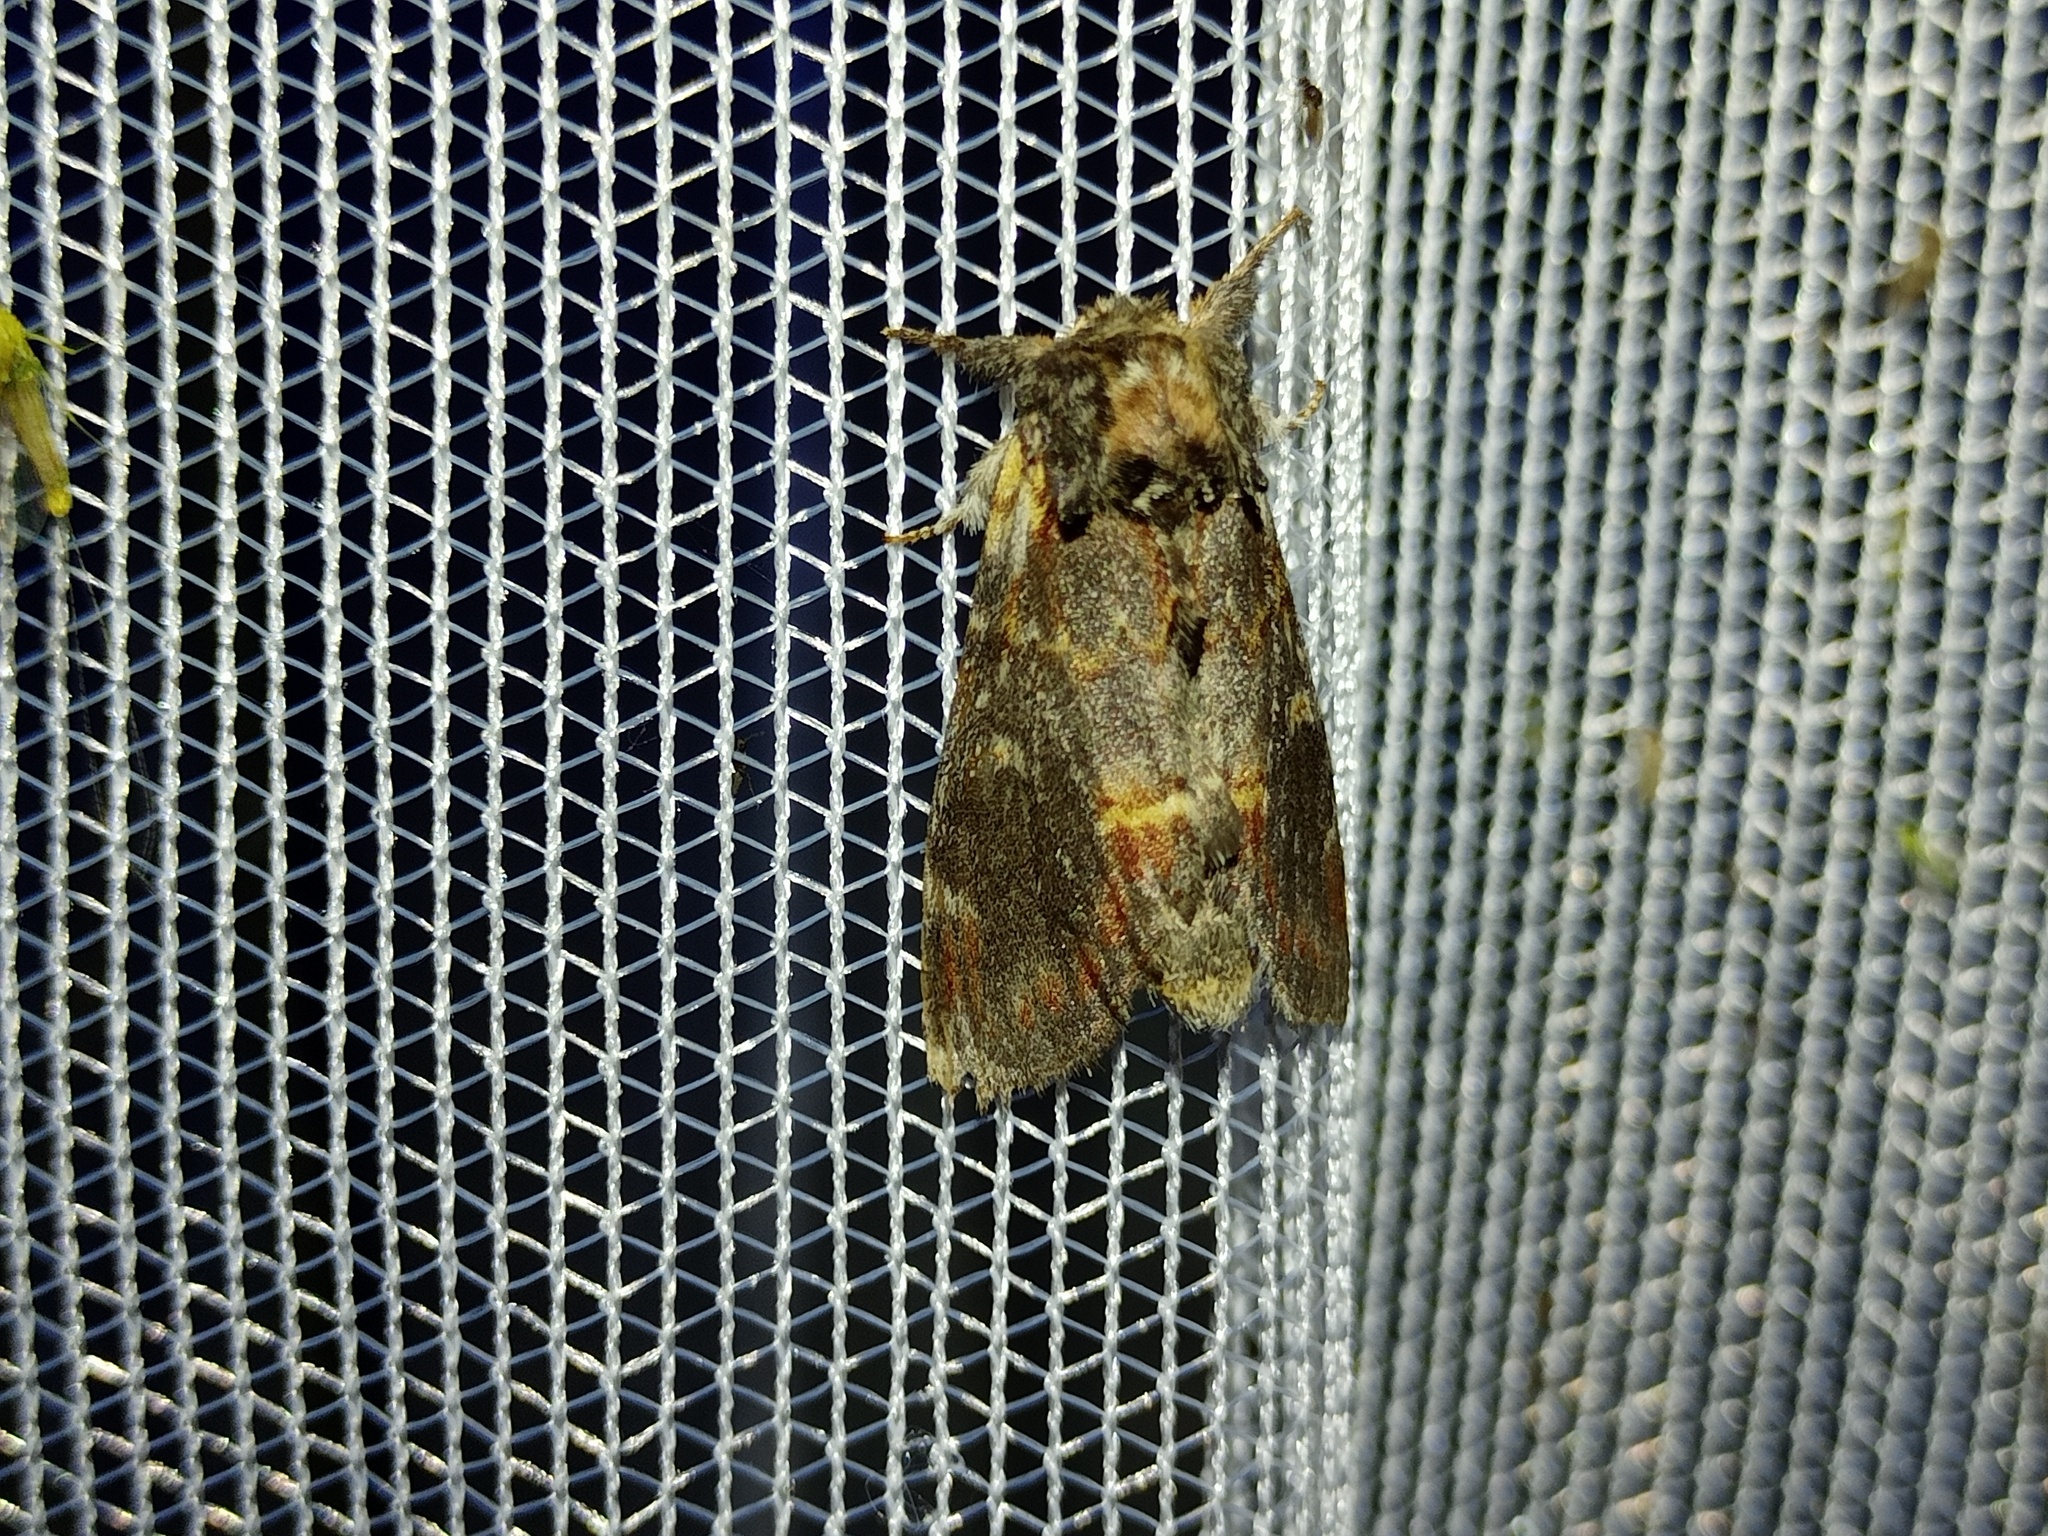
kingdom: Animalia
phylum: Arthropoda
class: Insecta
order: Lepidoptera
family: Notodontidae
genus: Notodonta
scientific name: Notodonta dromedarius
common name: Iron prominent
